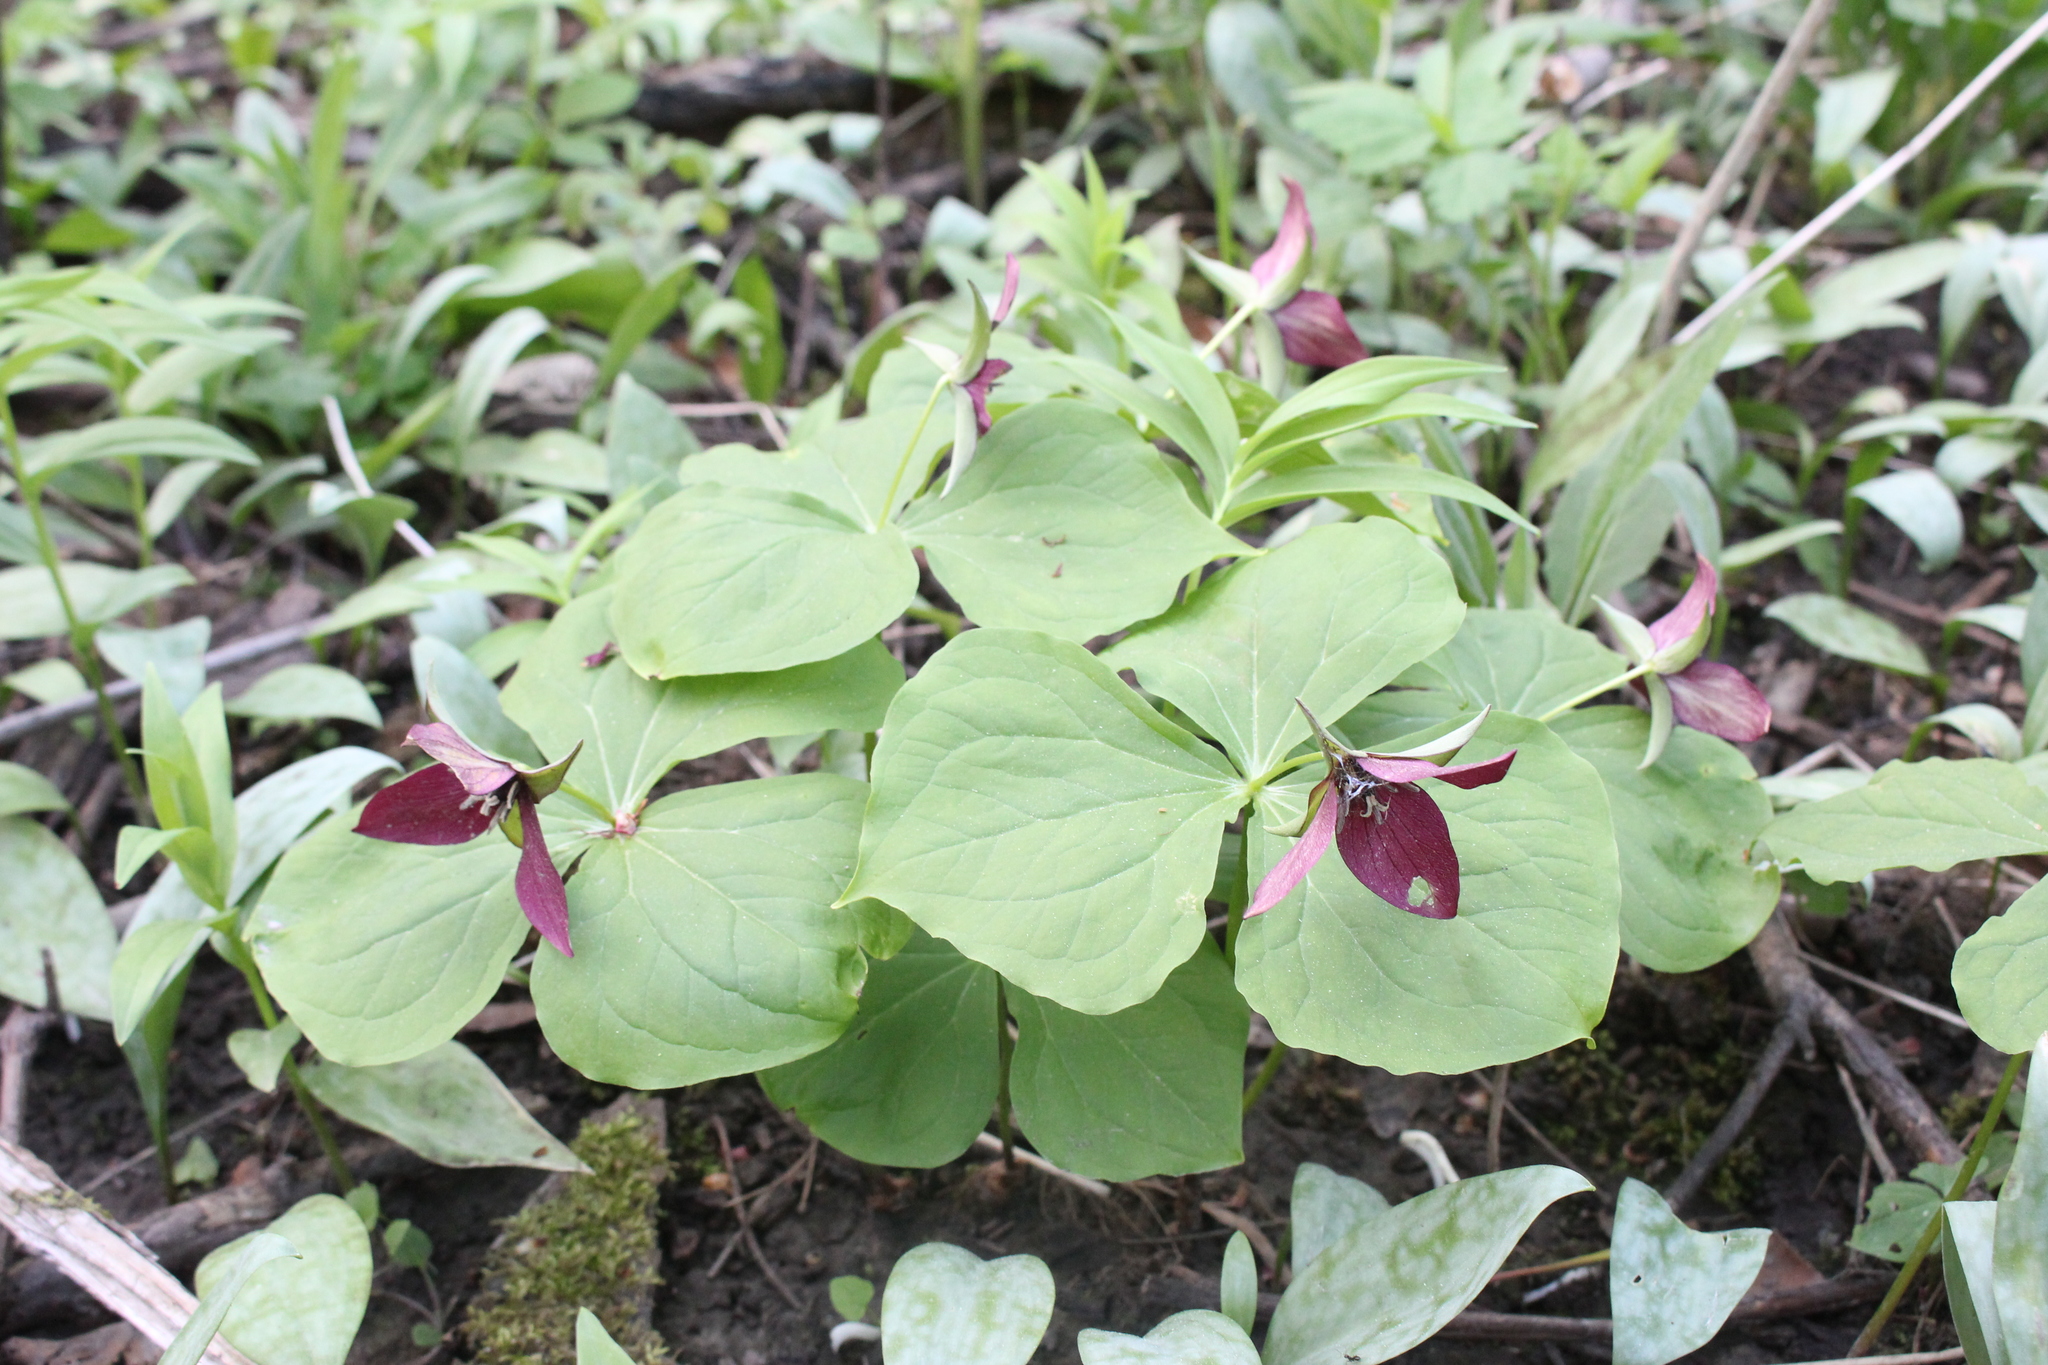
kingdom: Plantae
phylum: Tracheophyta
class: Liliopsida
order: Liliales
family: Melanthiaceae
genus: Trillium
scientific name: Trillium erectum
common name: Purple trillium
